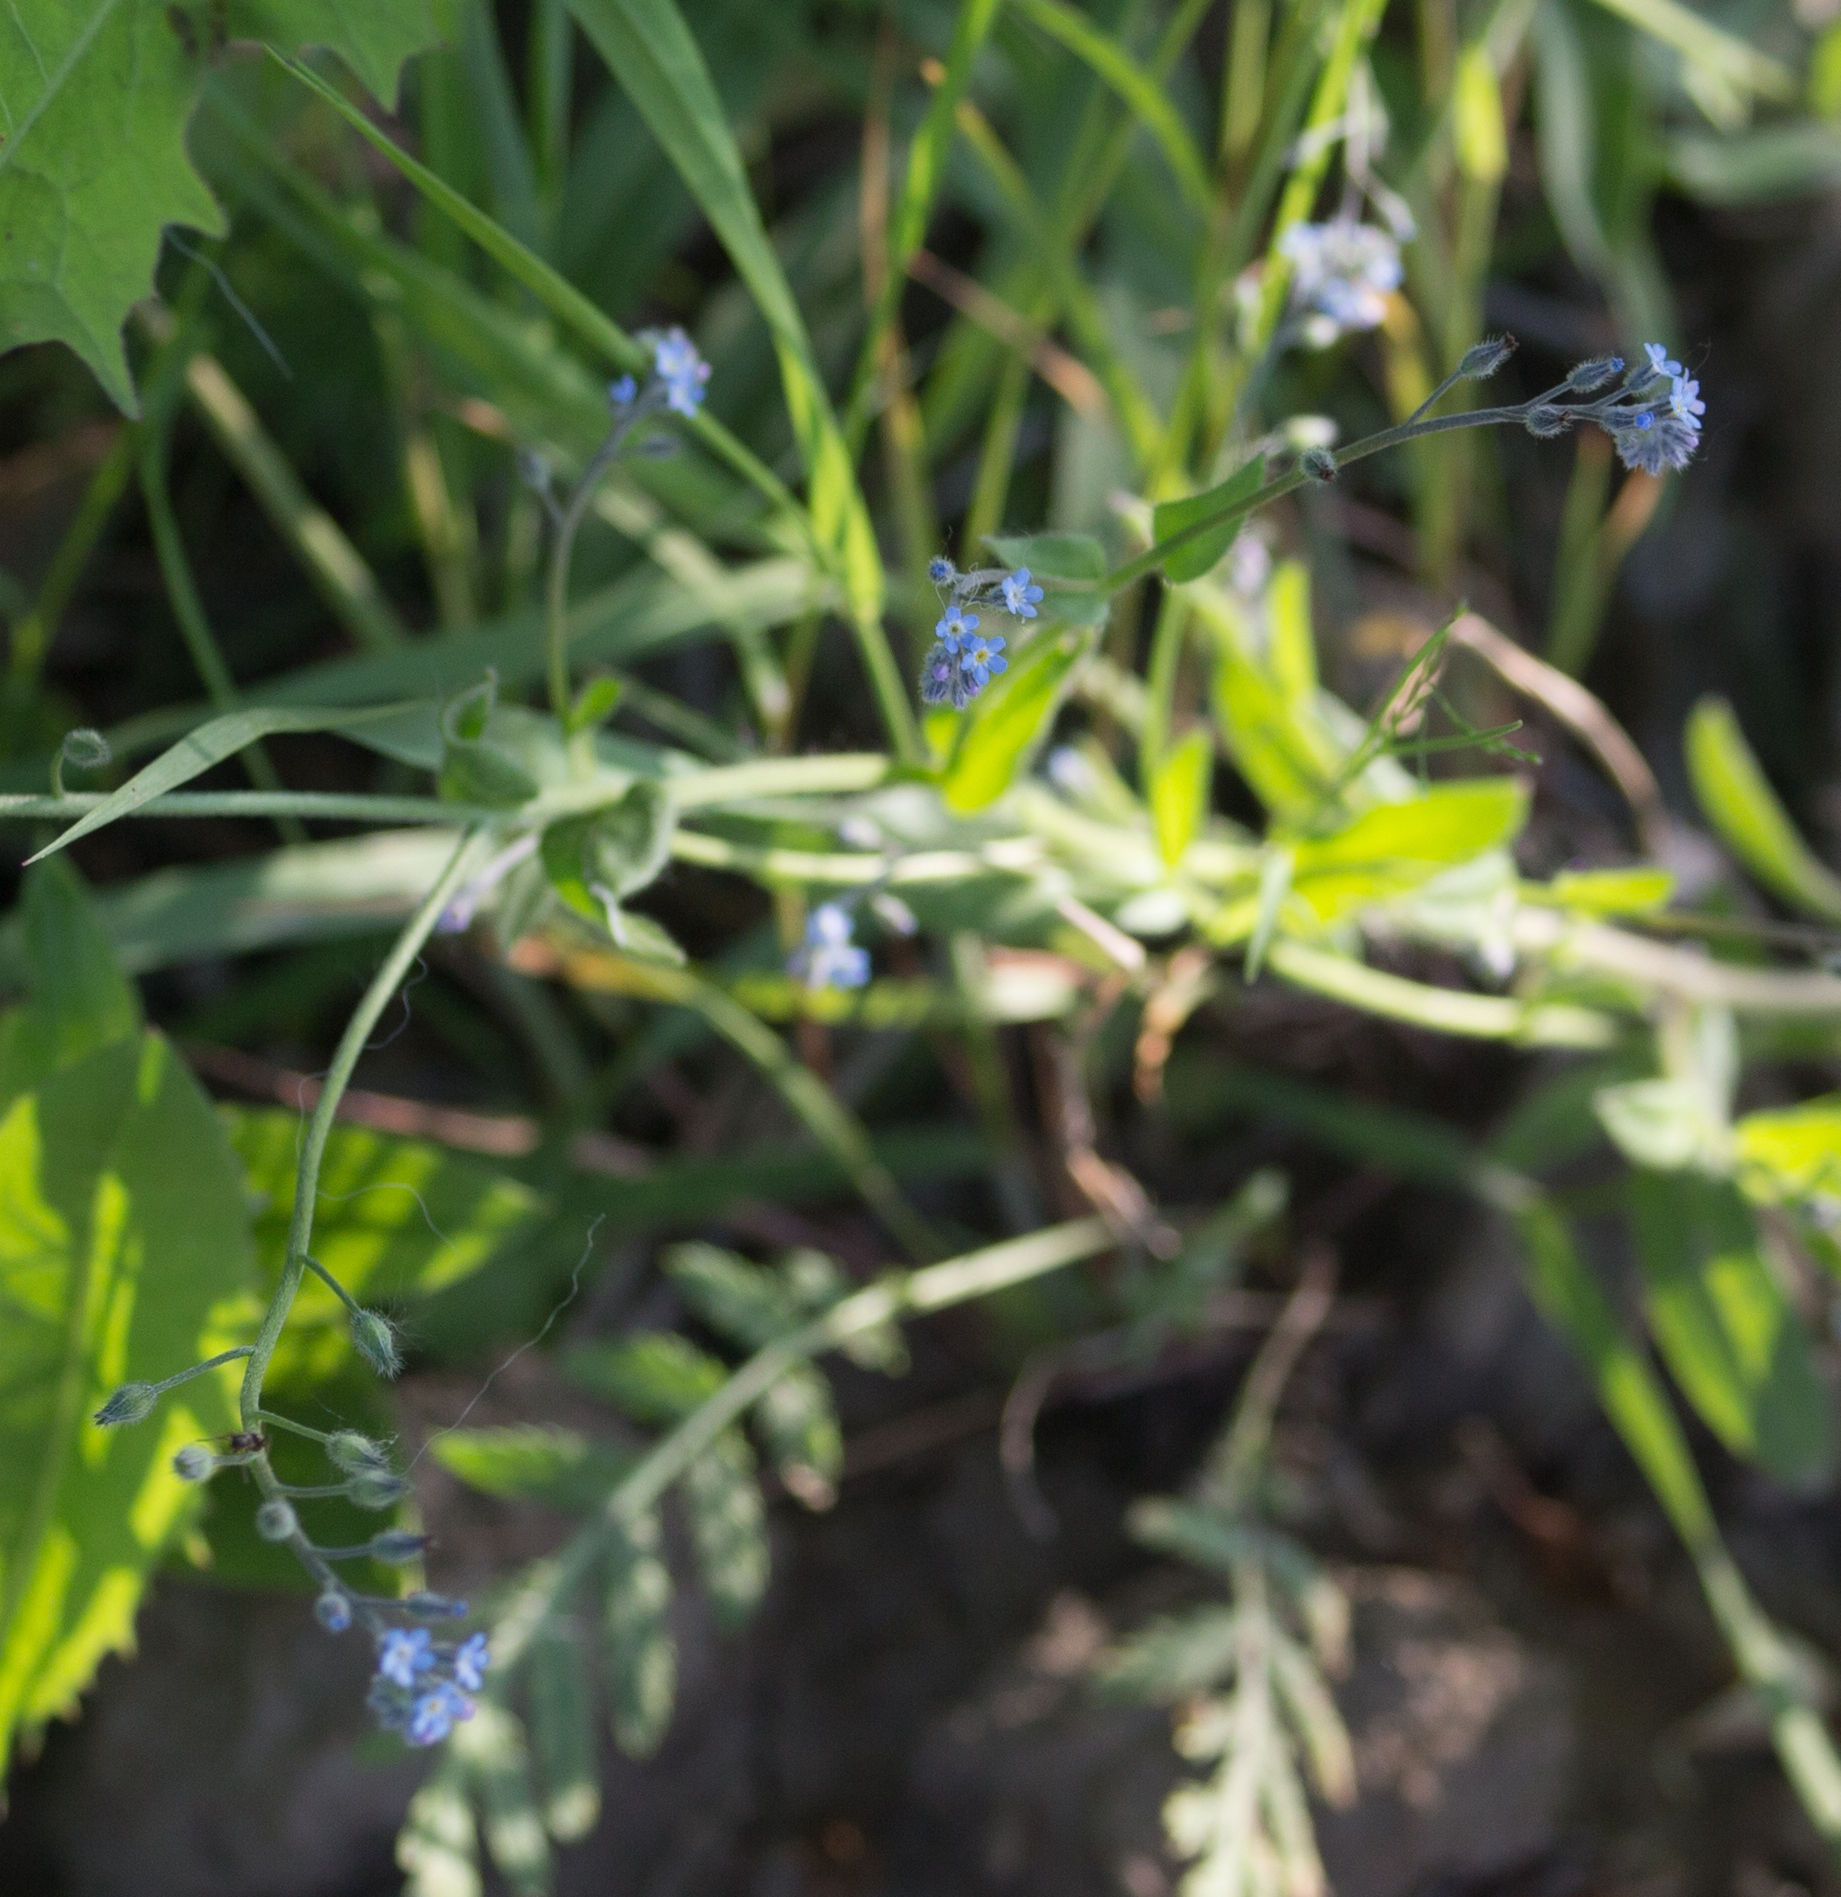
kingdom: Plantae
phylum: Tracheophyta
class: Magnoliopsida
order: Boraginales
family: Boraginaceae
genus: Myosotis
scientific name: Myosotis arvensis
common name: Field forget-me-not
